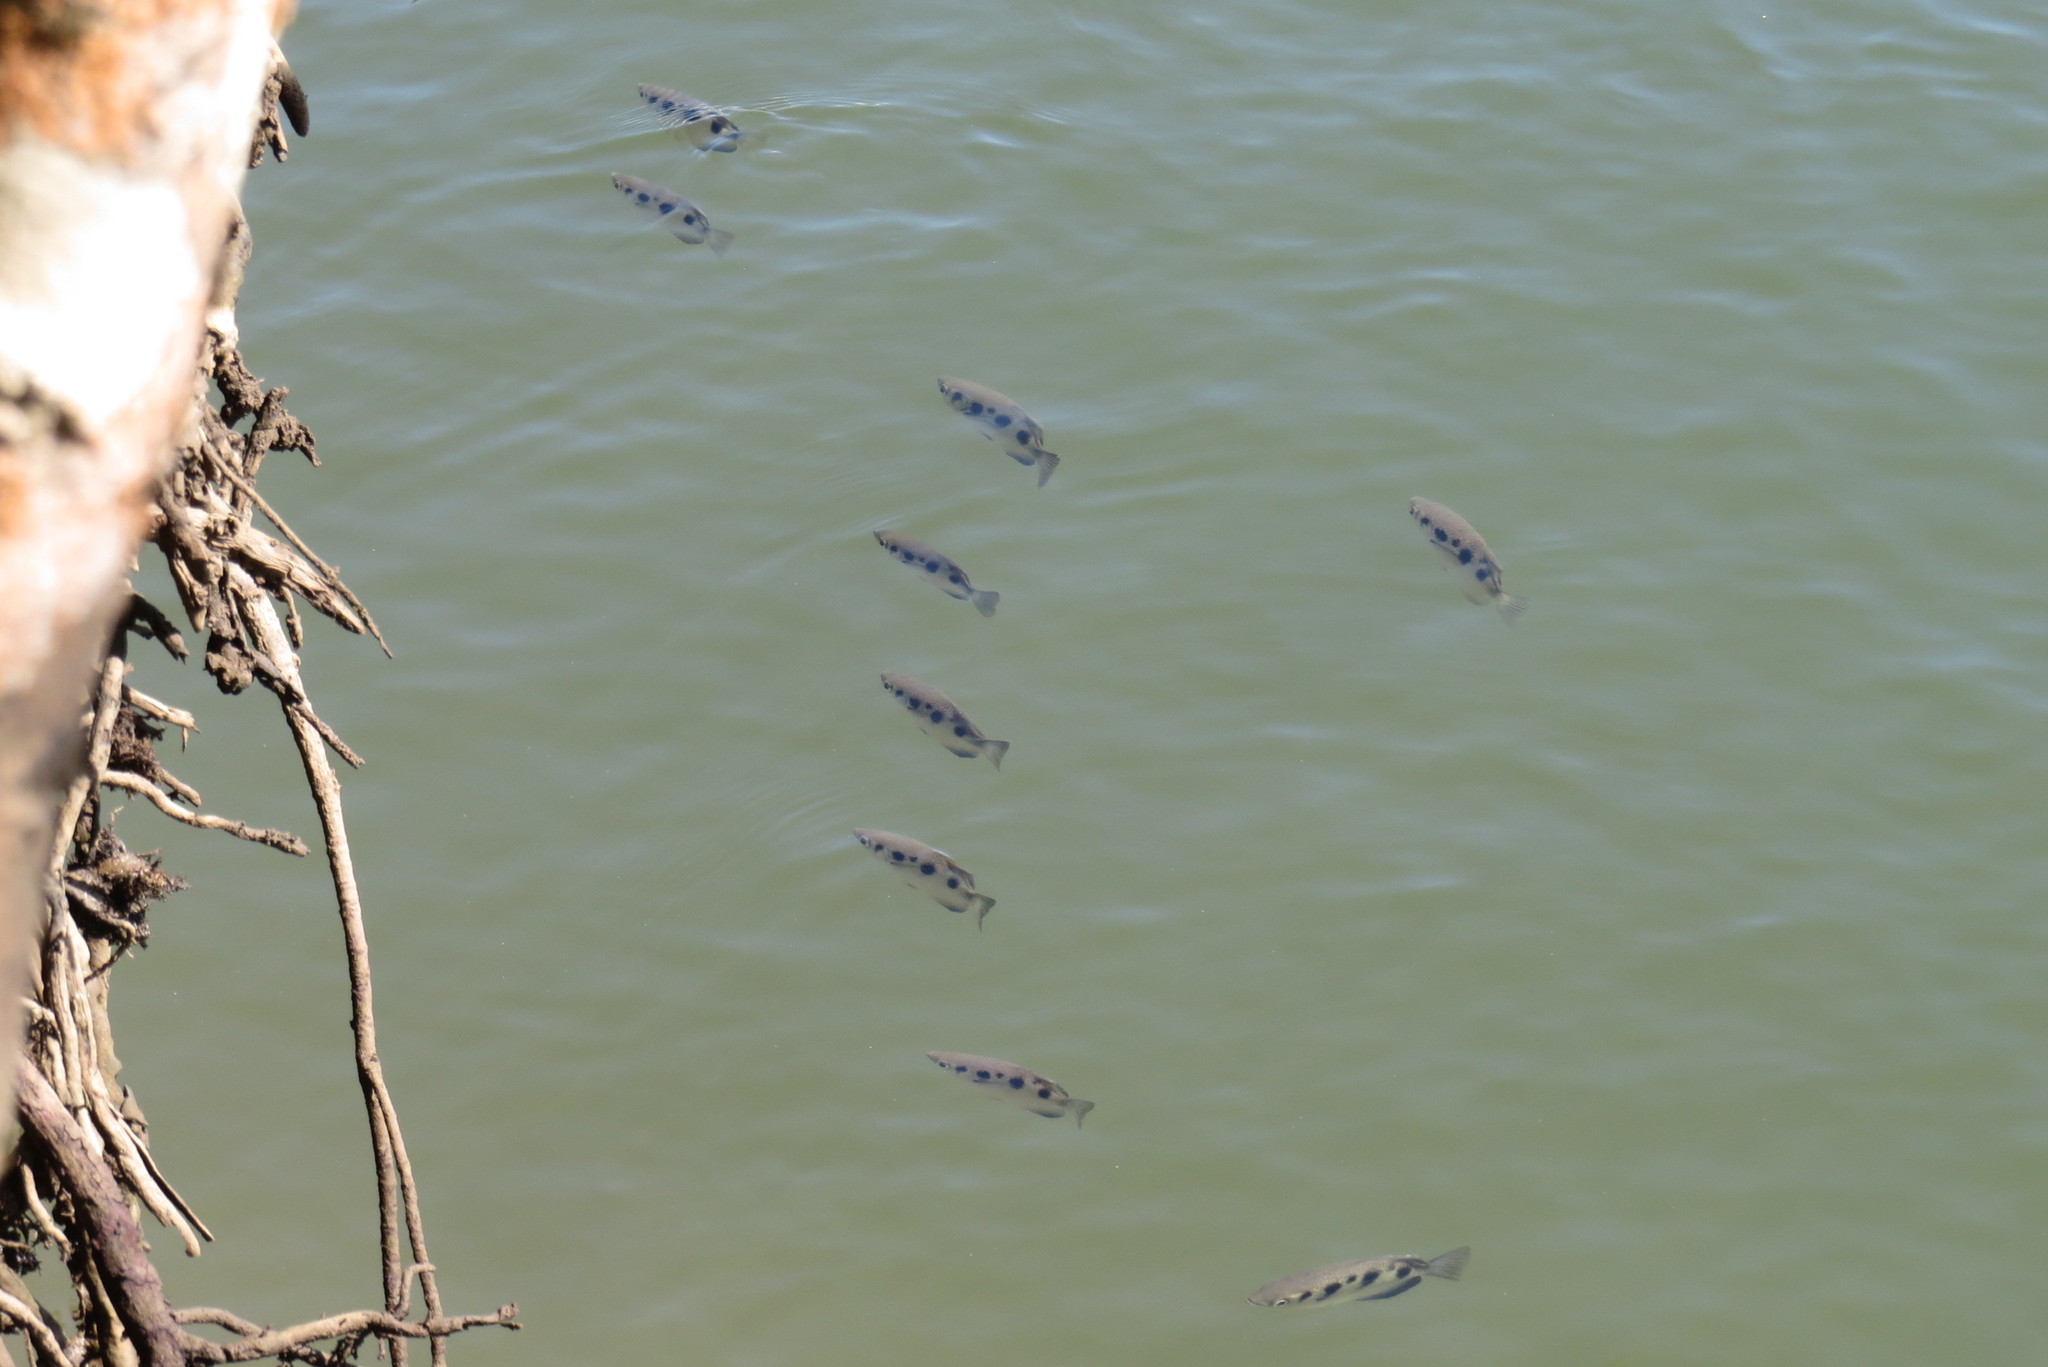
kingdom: Animalia
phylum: Chordata
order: Perciformes
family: Toxotidae
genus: Toxotes
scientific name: Toxotes chatareus
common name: Spotted archerfish
